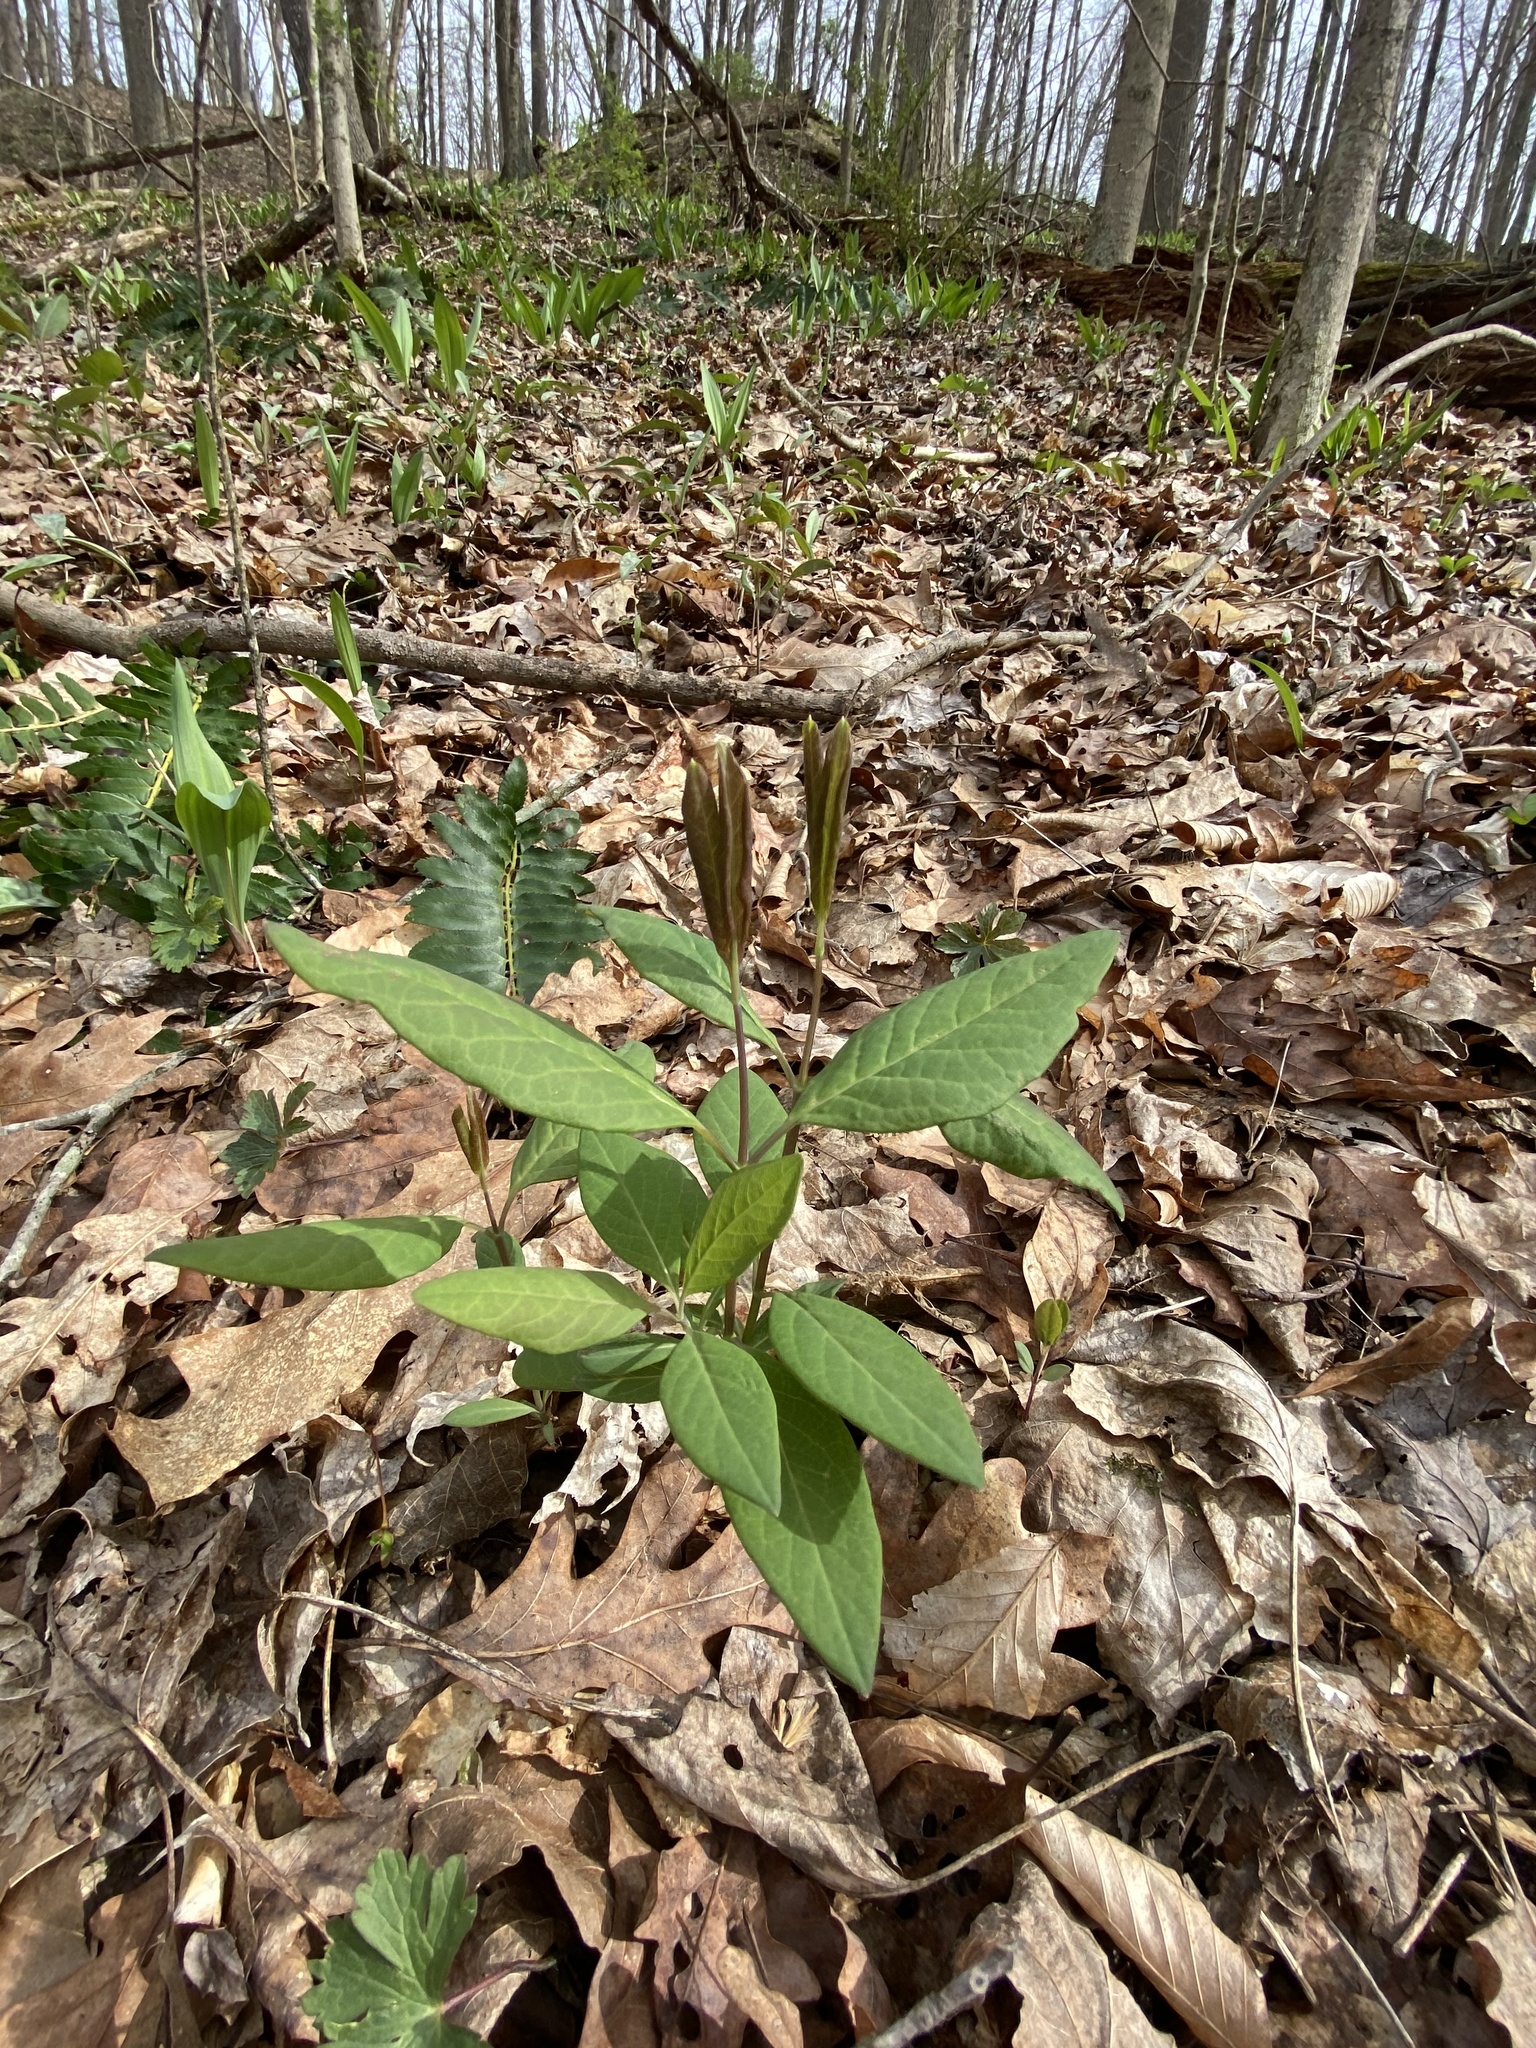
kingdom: Plantae
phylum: Tracheophyta
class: Magnoliopsida
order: Dipsacales
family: Caprifoliaceae
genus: Lonicera
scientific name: Lonicera dioica
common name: Limber honeysuckle
